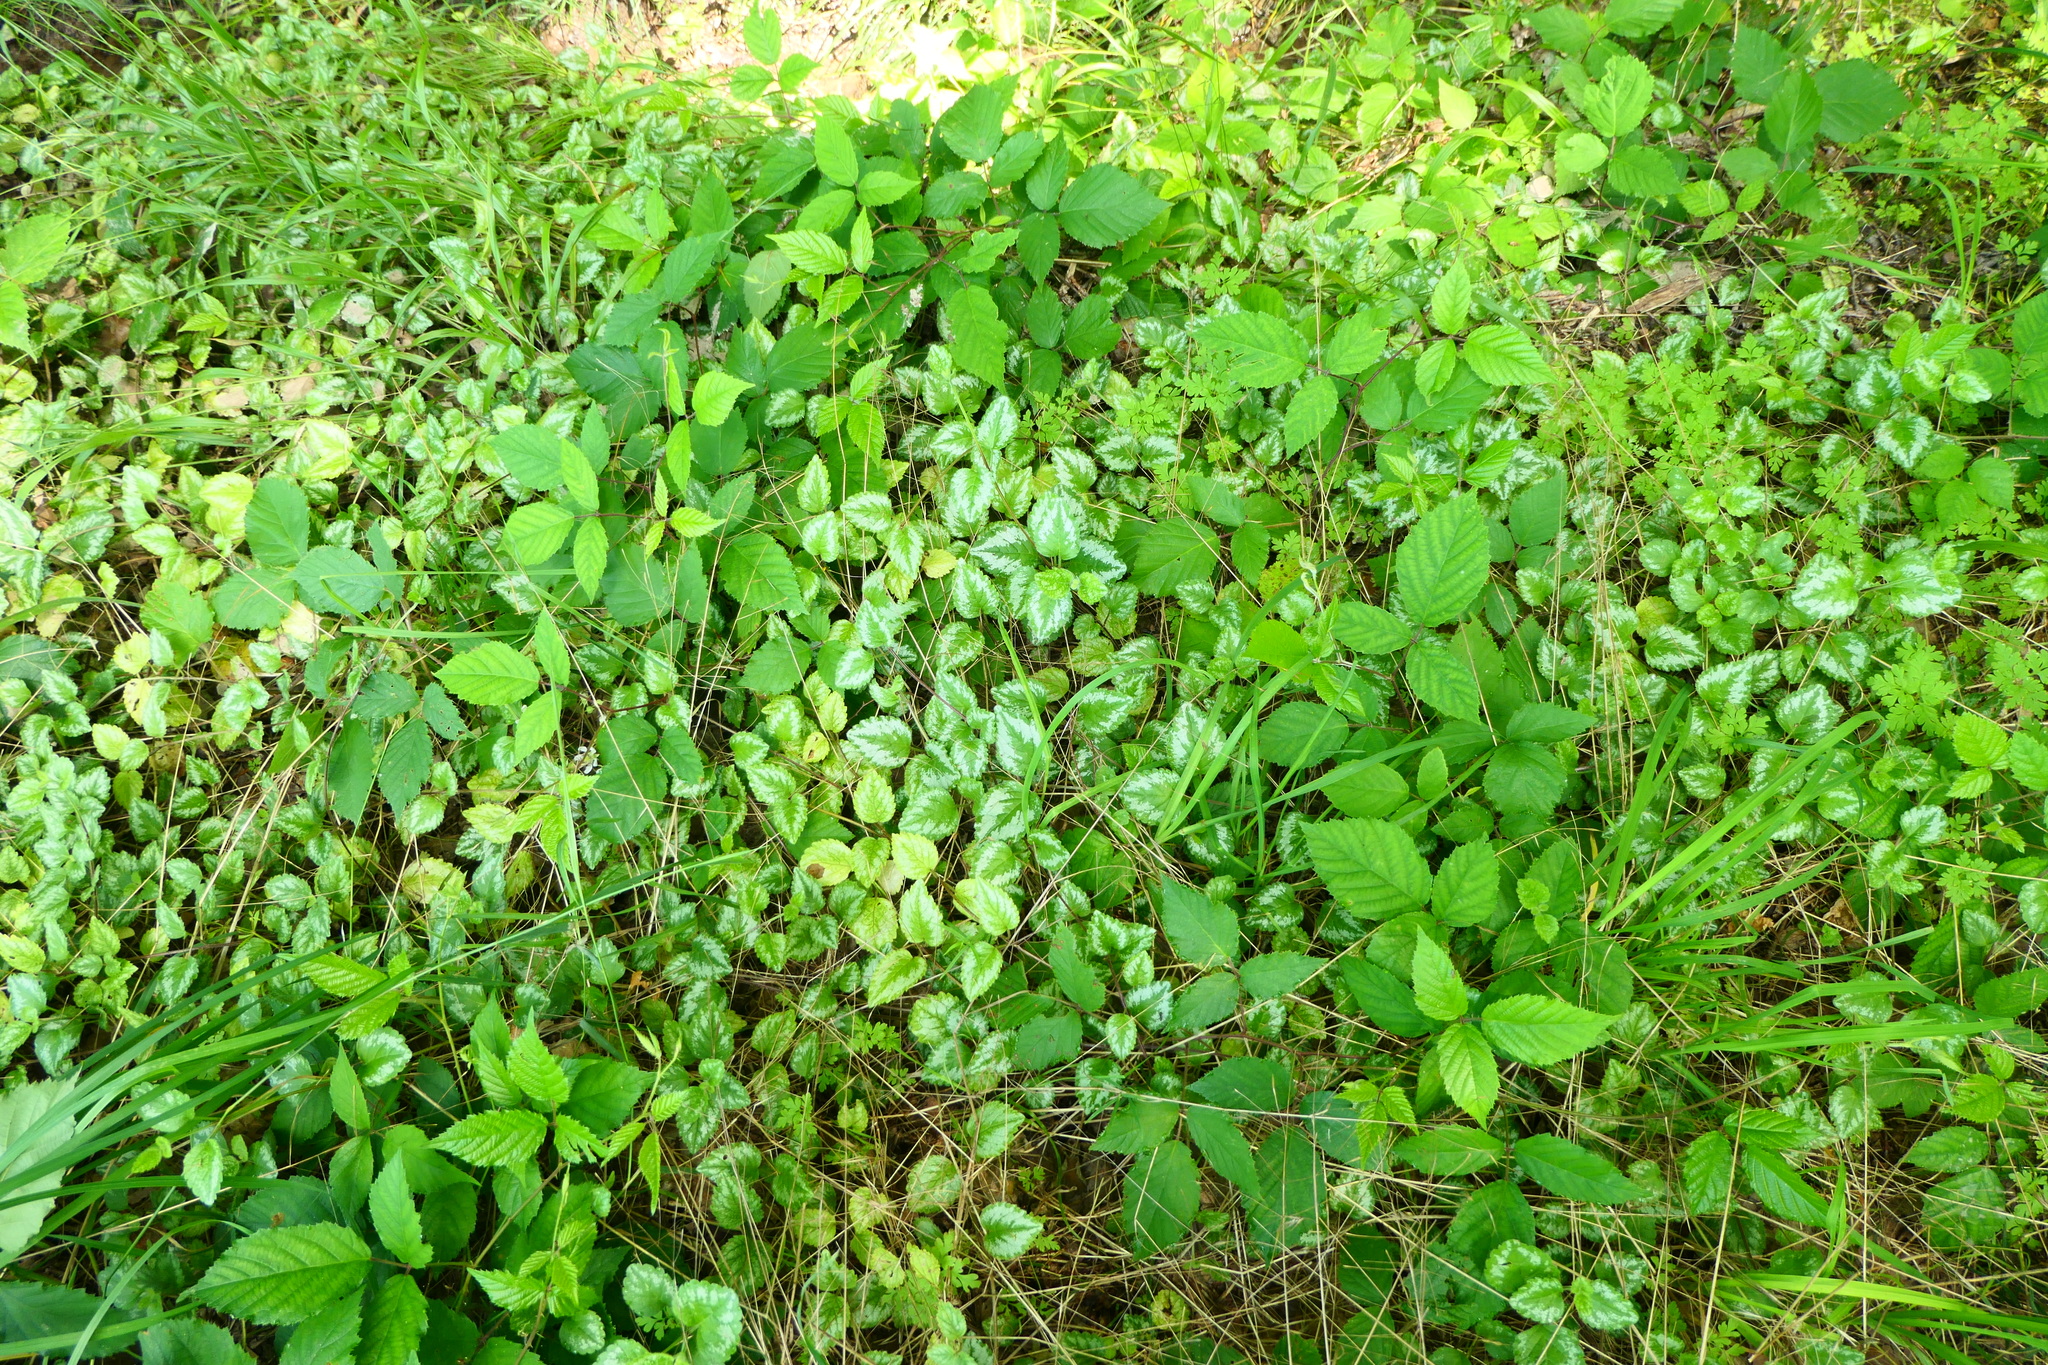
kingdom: Plantae
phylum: Tracheophyta
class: Magnoliopsida
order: Lamiales
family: Lamiaceae
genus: Lamium
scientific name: Lamium galeobdolon
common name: Yellow archangel
